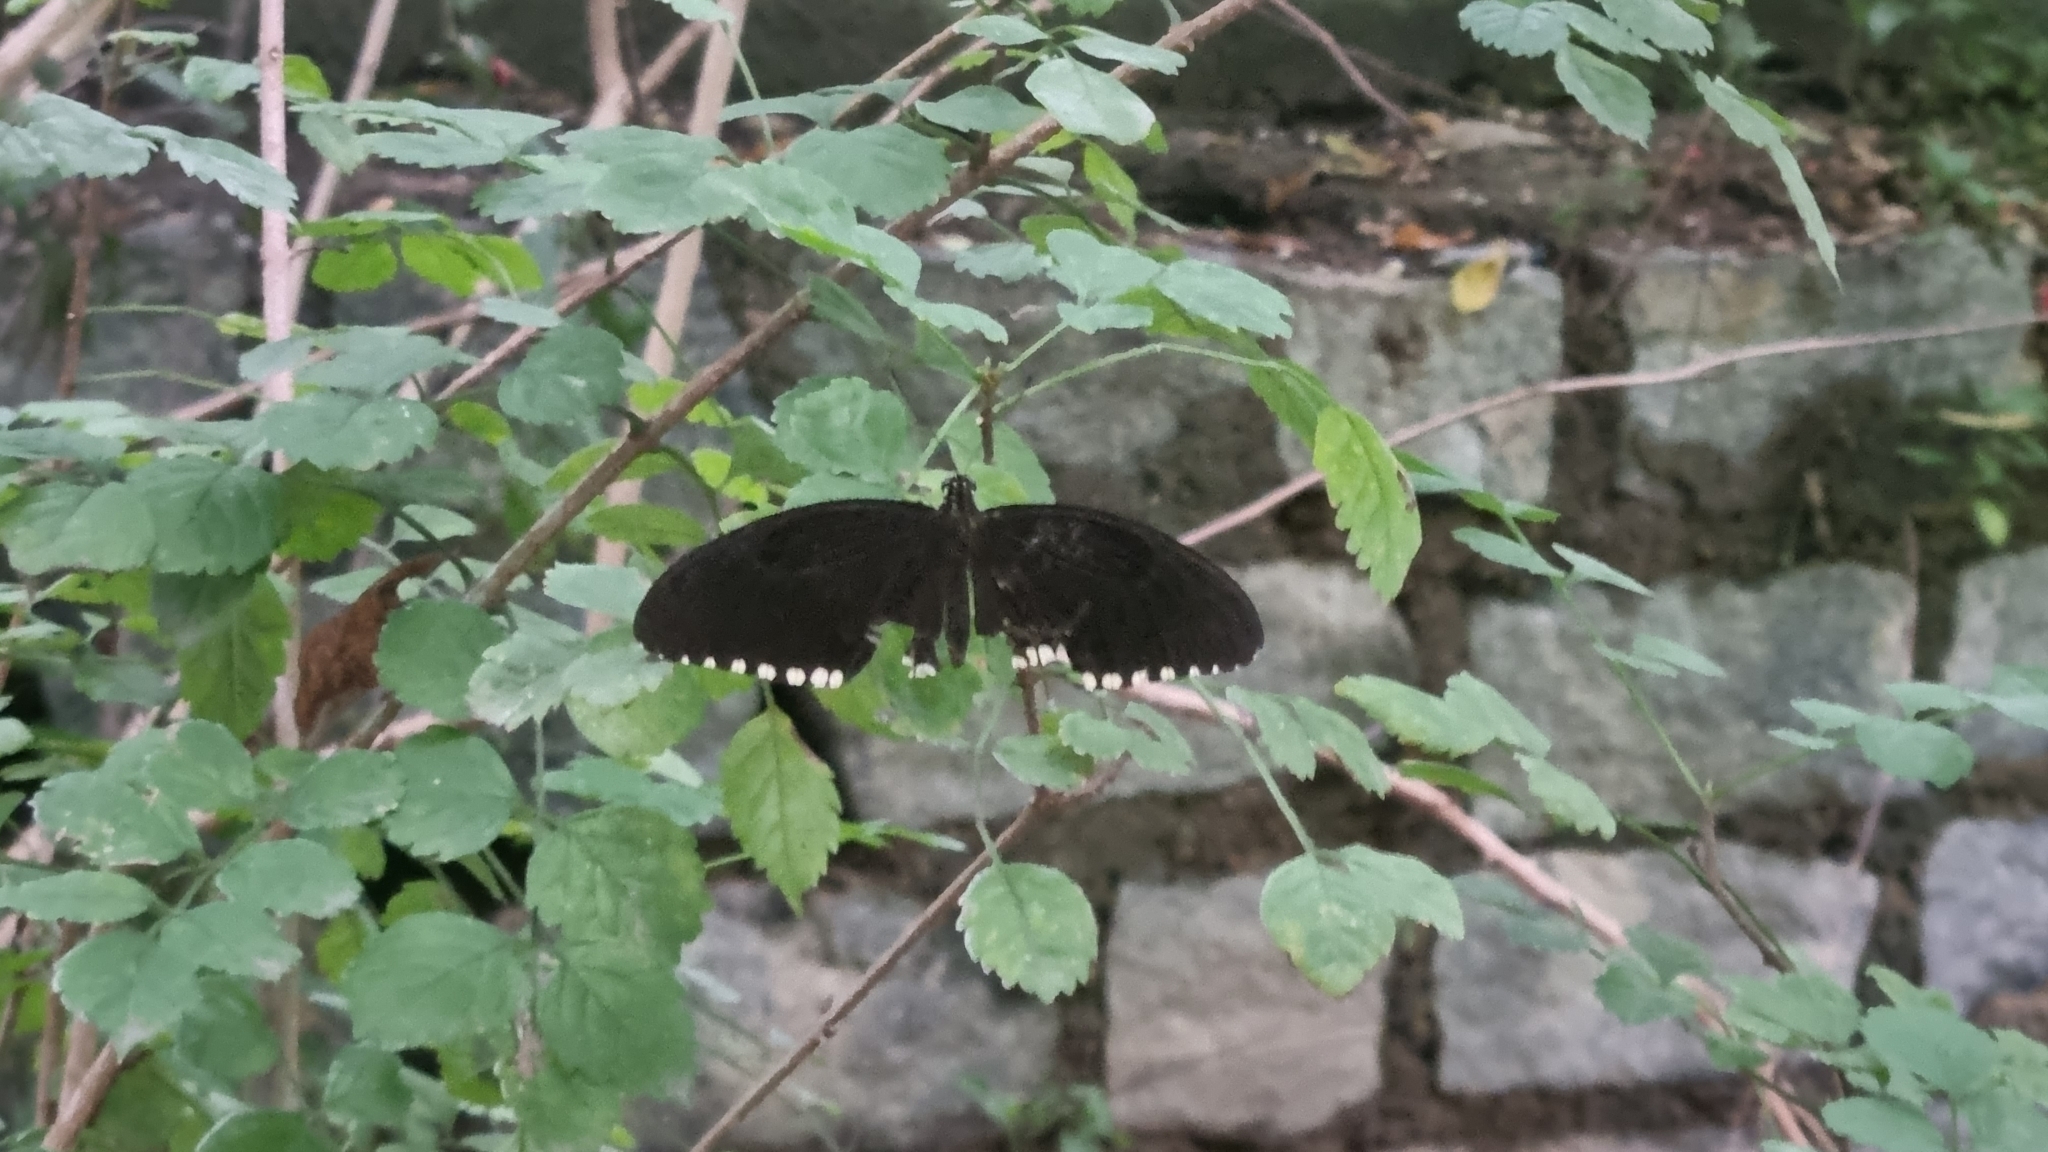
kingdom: Animalia
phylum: Arthropoda
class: Insecta
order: Lepidoptera
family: Papilionidae
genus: Papilio
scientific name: Papilio polytes
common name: Common mormon
